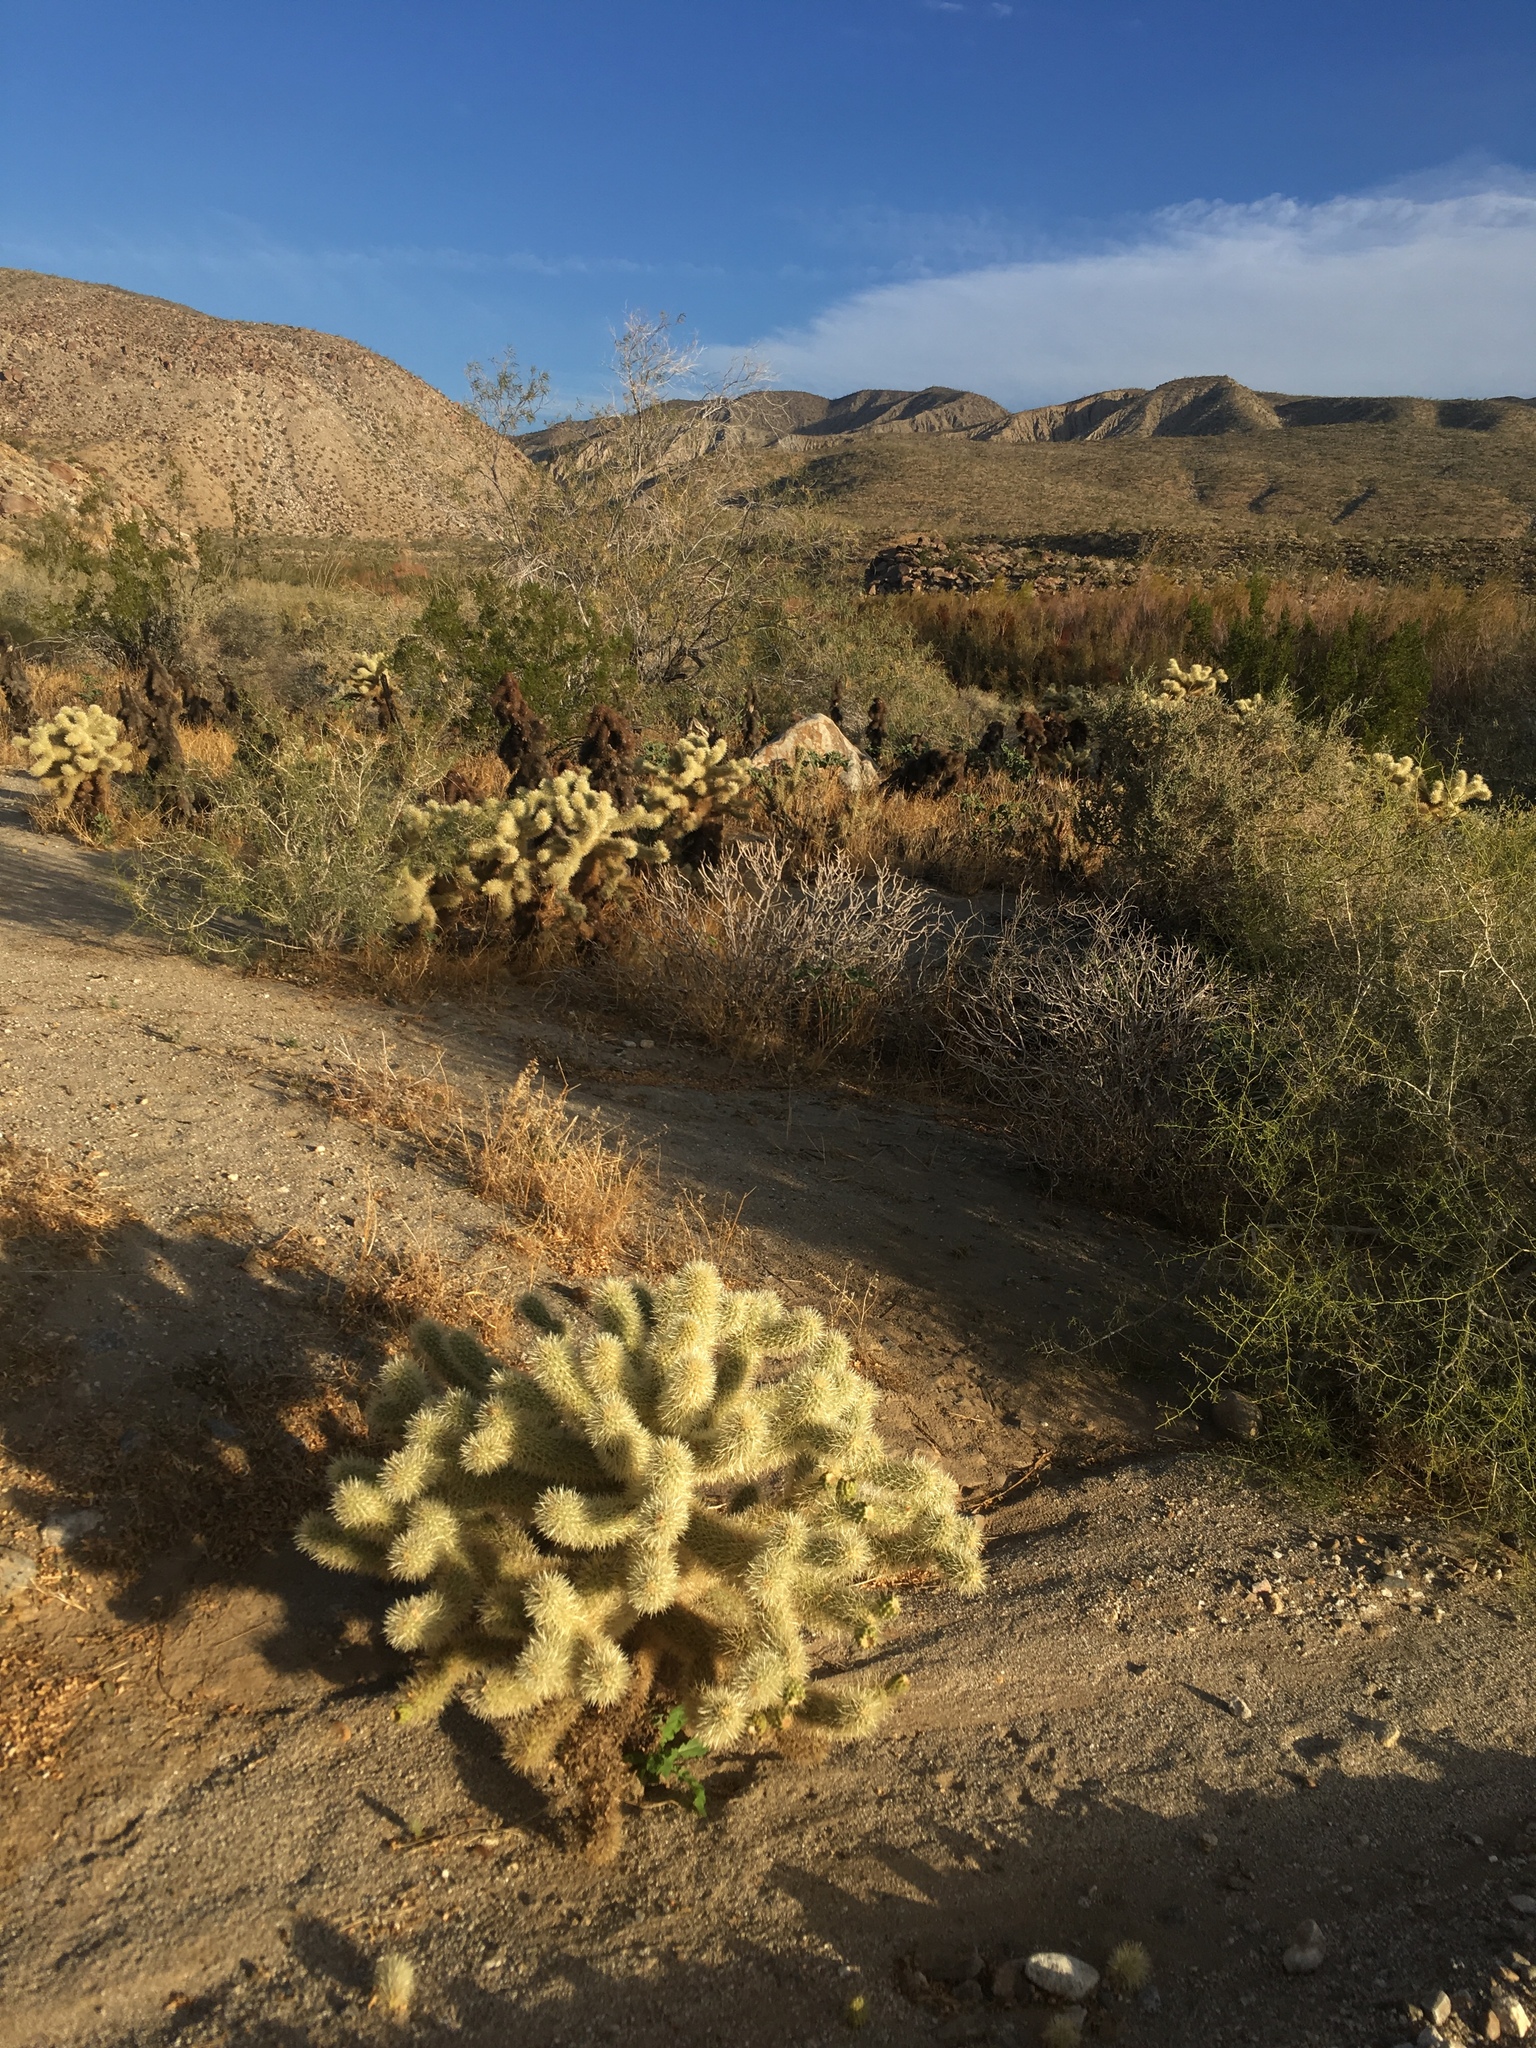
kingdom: Plantae
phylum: Tracheophyta
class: Magnoliopsida
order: Caryophyllales
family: Cactaceae
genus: Cylindropuntia
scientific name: Cylindropuntia fosbergii
